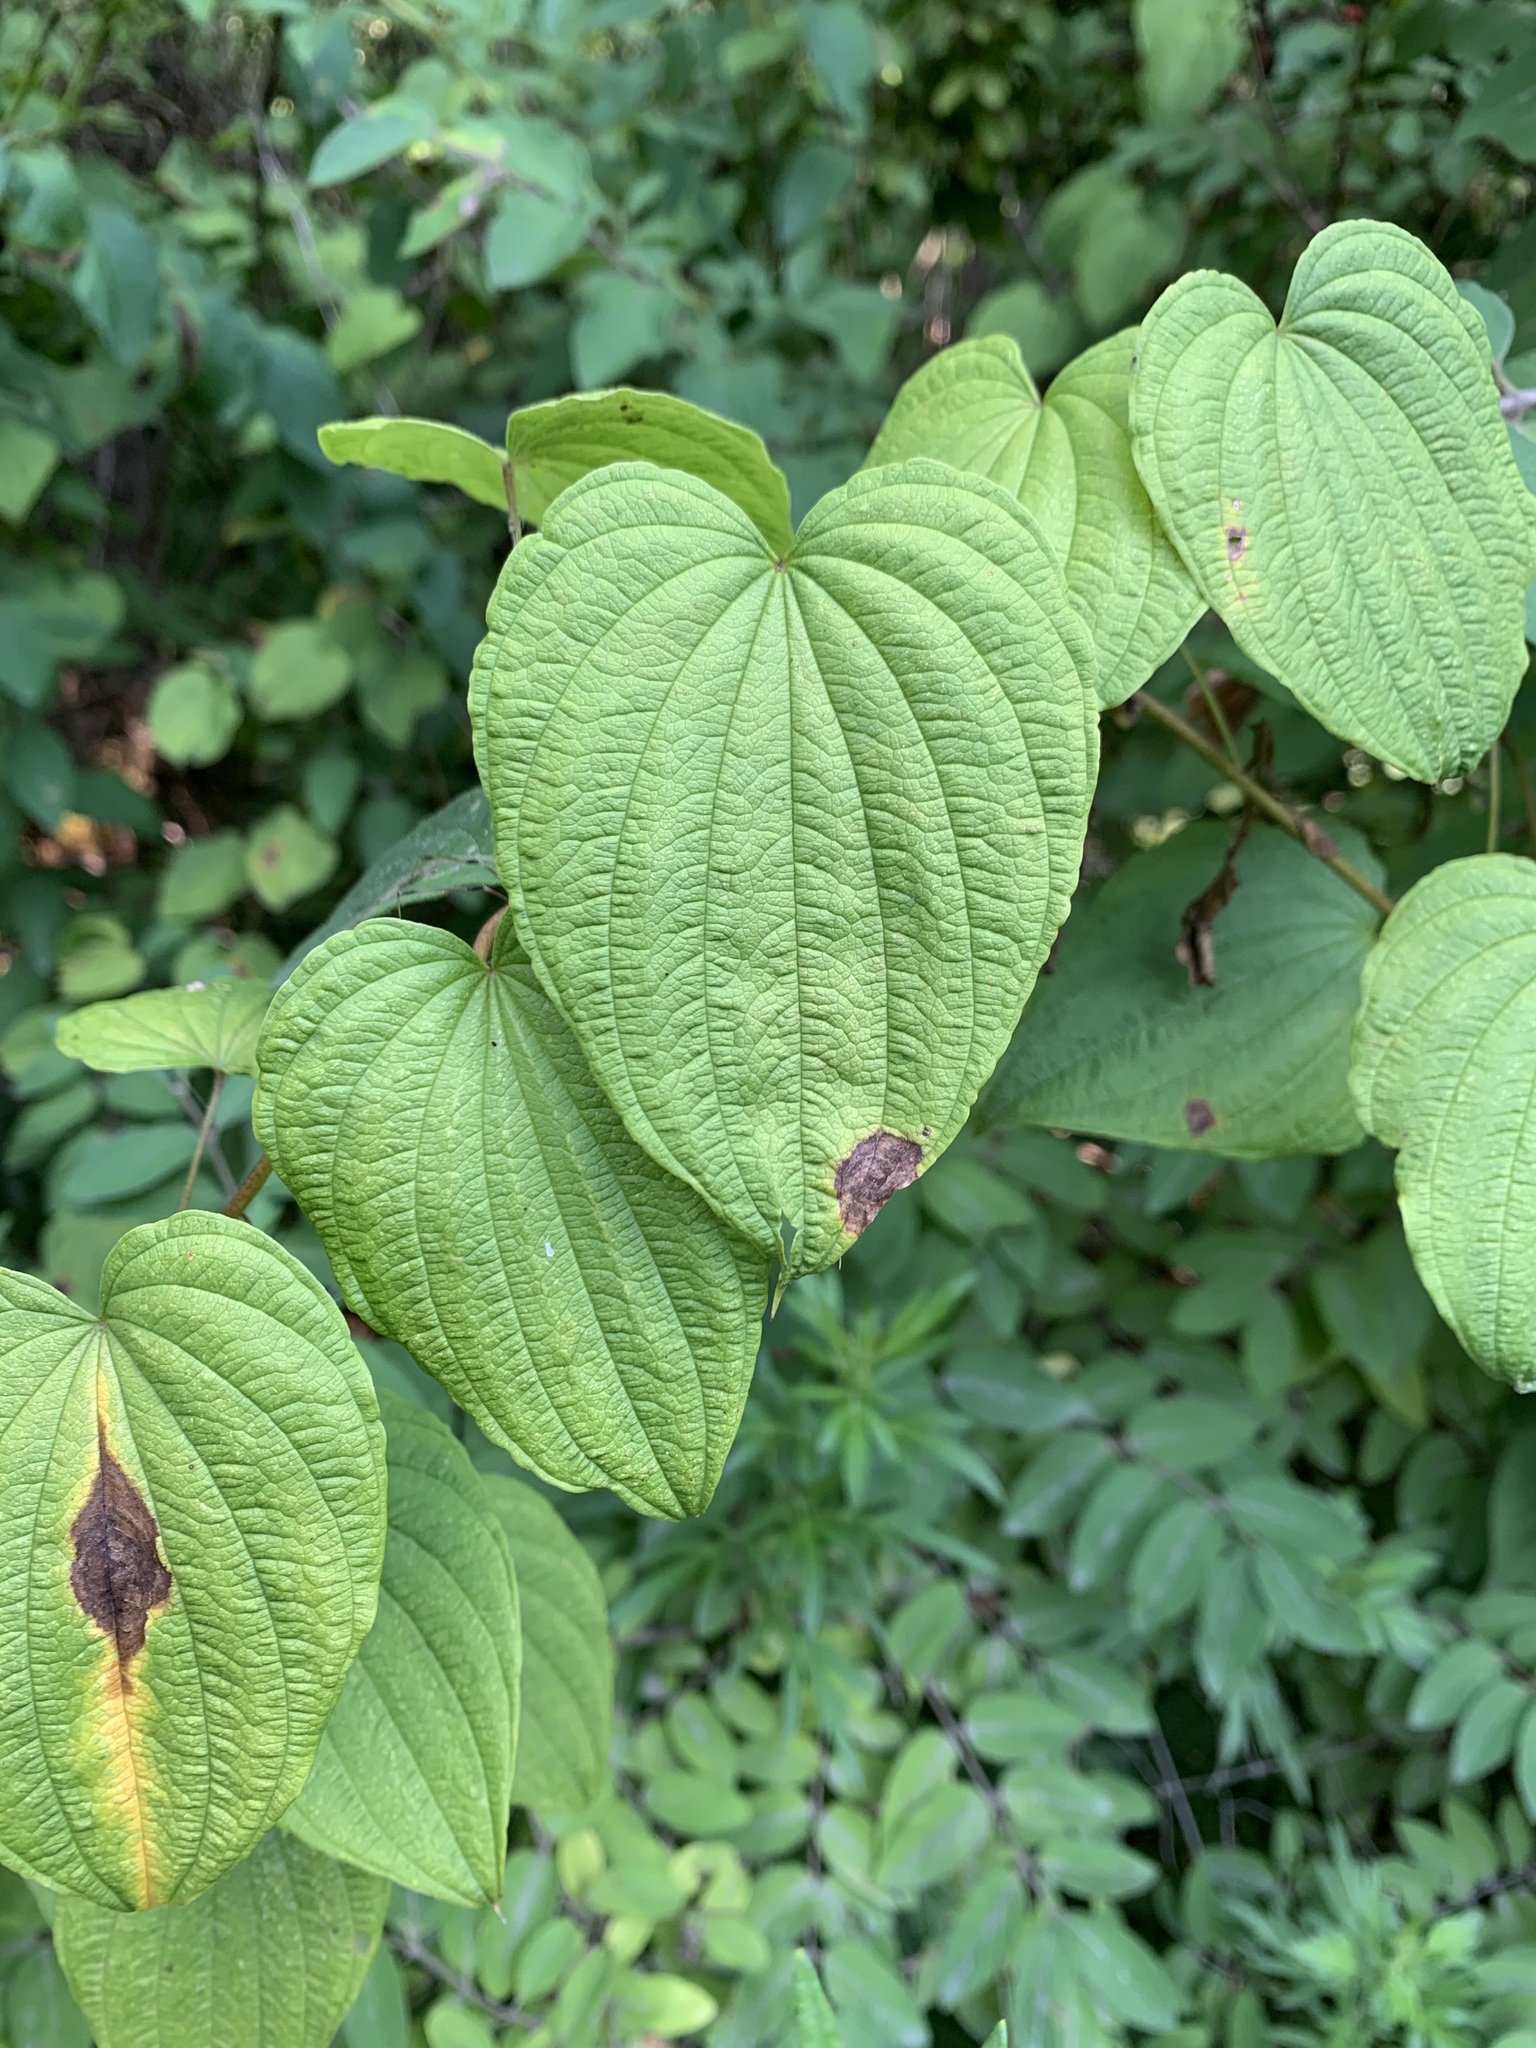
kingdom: Plantae
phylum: Tracheophyta
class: Liliopsida
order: Dioscoreales
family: Dioscoreaceae
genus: Dioscorea
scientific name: Dioscorea villosa
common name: Wild yam
